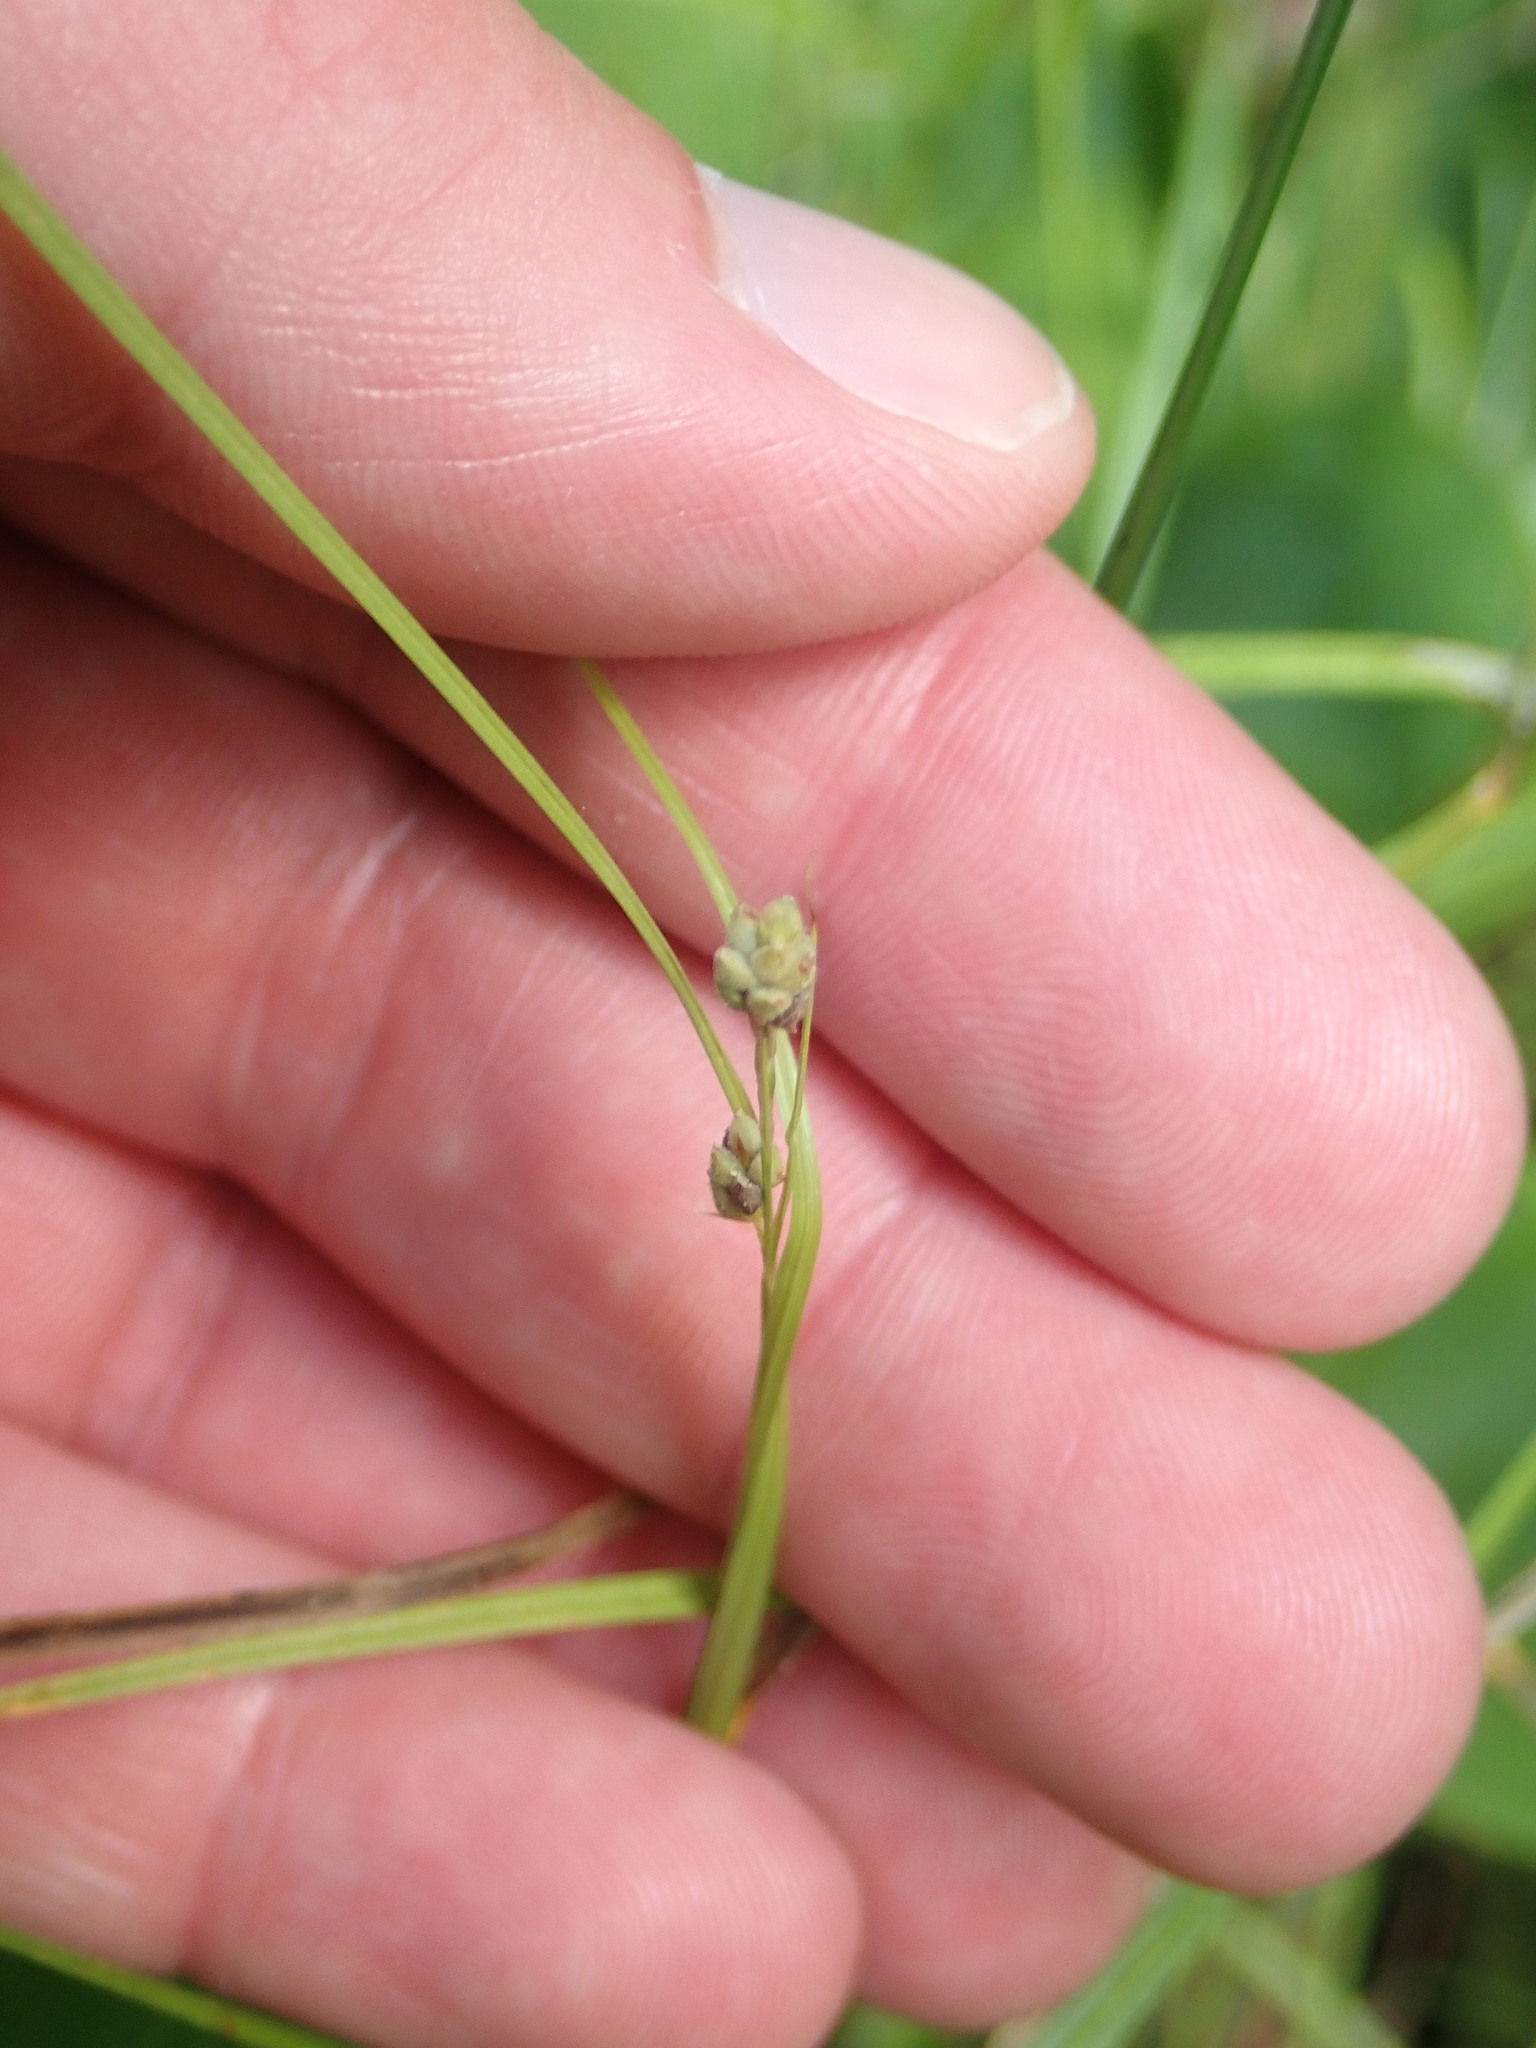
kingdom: Plantae
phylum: Tracheophyta
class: Liliopsida
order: Poales
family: Cyperaceae
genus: Carex
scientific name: Carex swanii
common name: Downy green sedge
